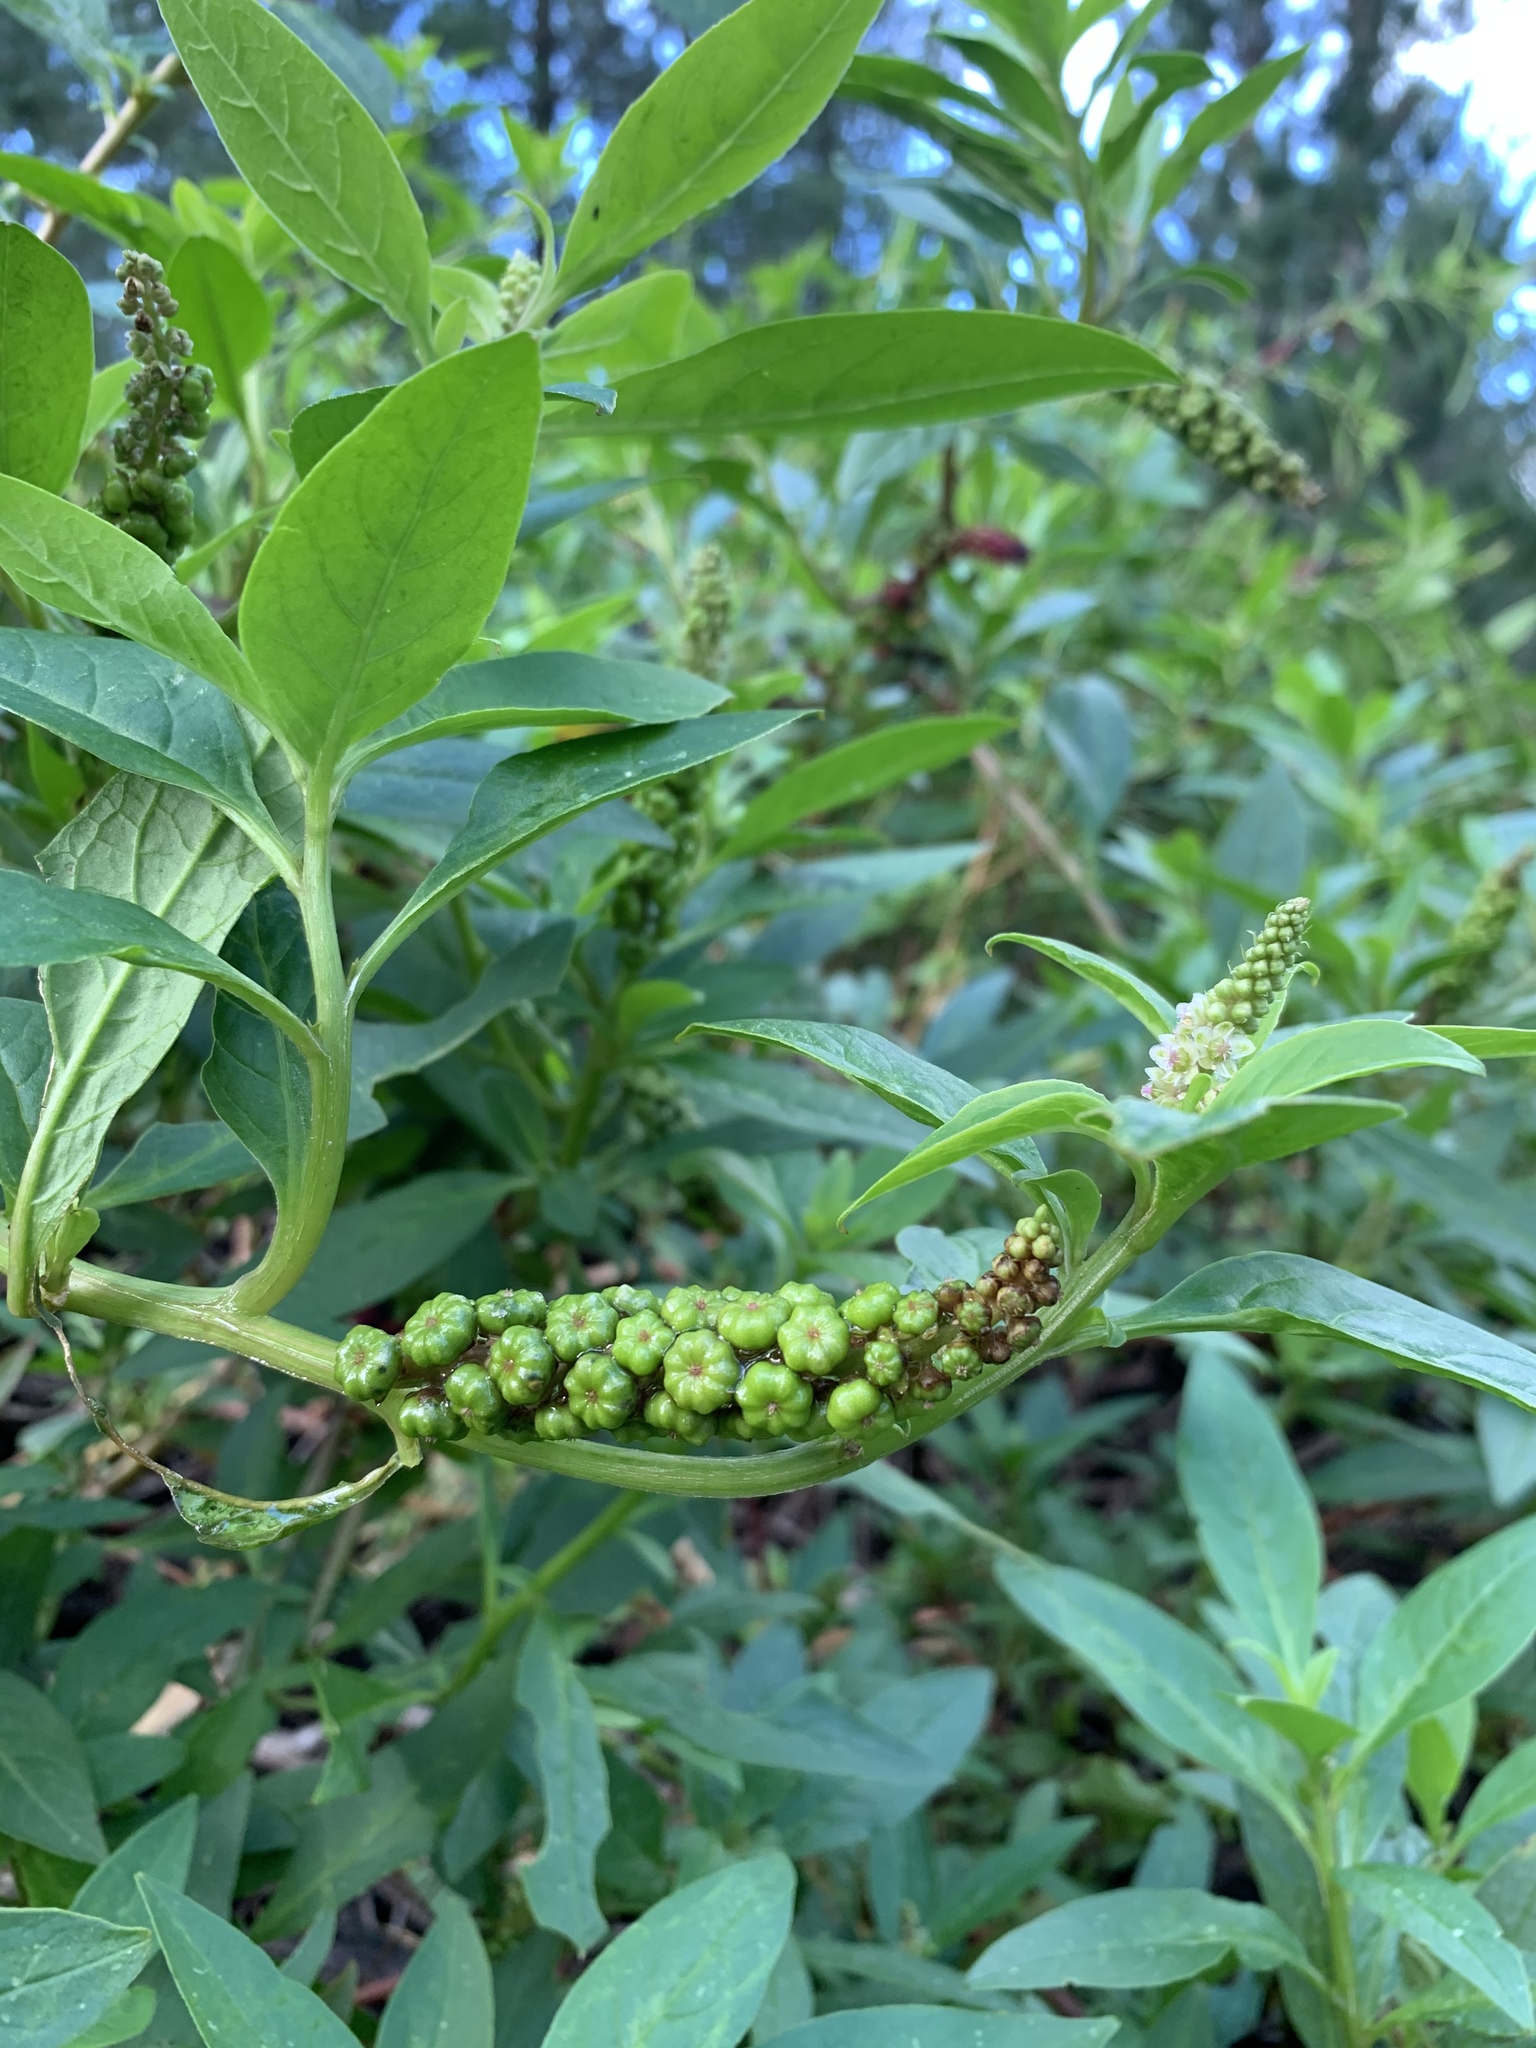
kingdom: Plantae
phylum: Tracheophyta
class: Magnoliopsida
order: Caryophyllales
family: Phytolaccaceae
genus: Phytolacca
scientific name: Phytolacca icosandra
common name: Button pokeweed
